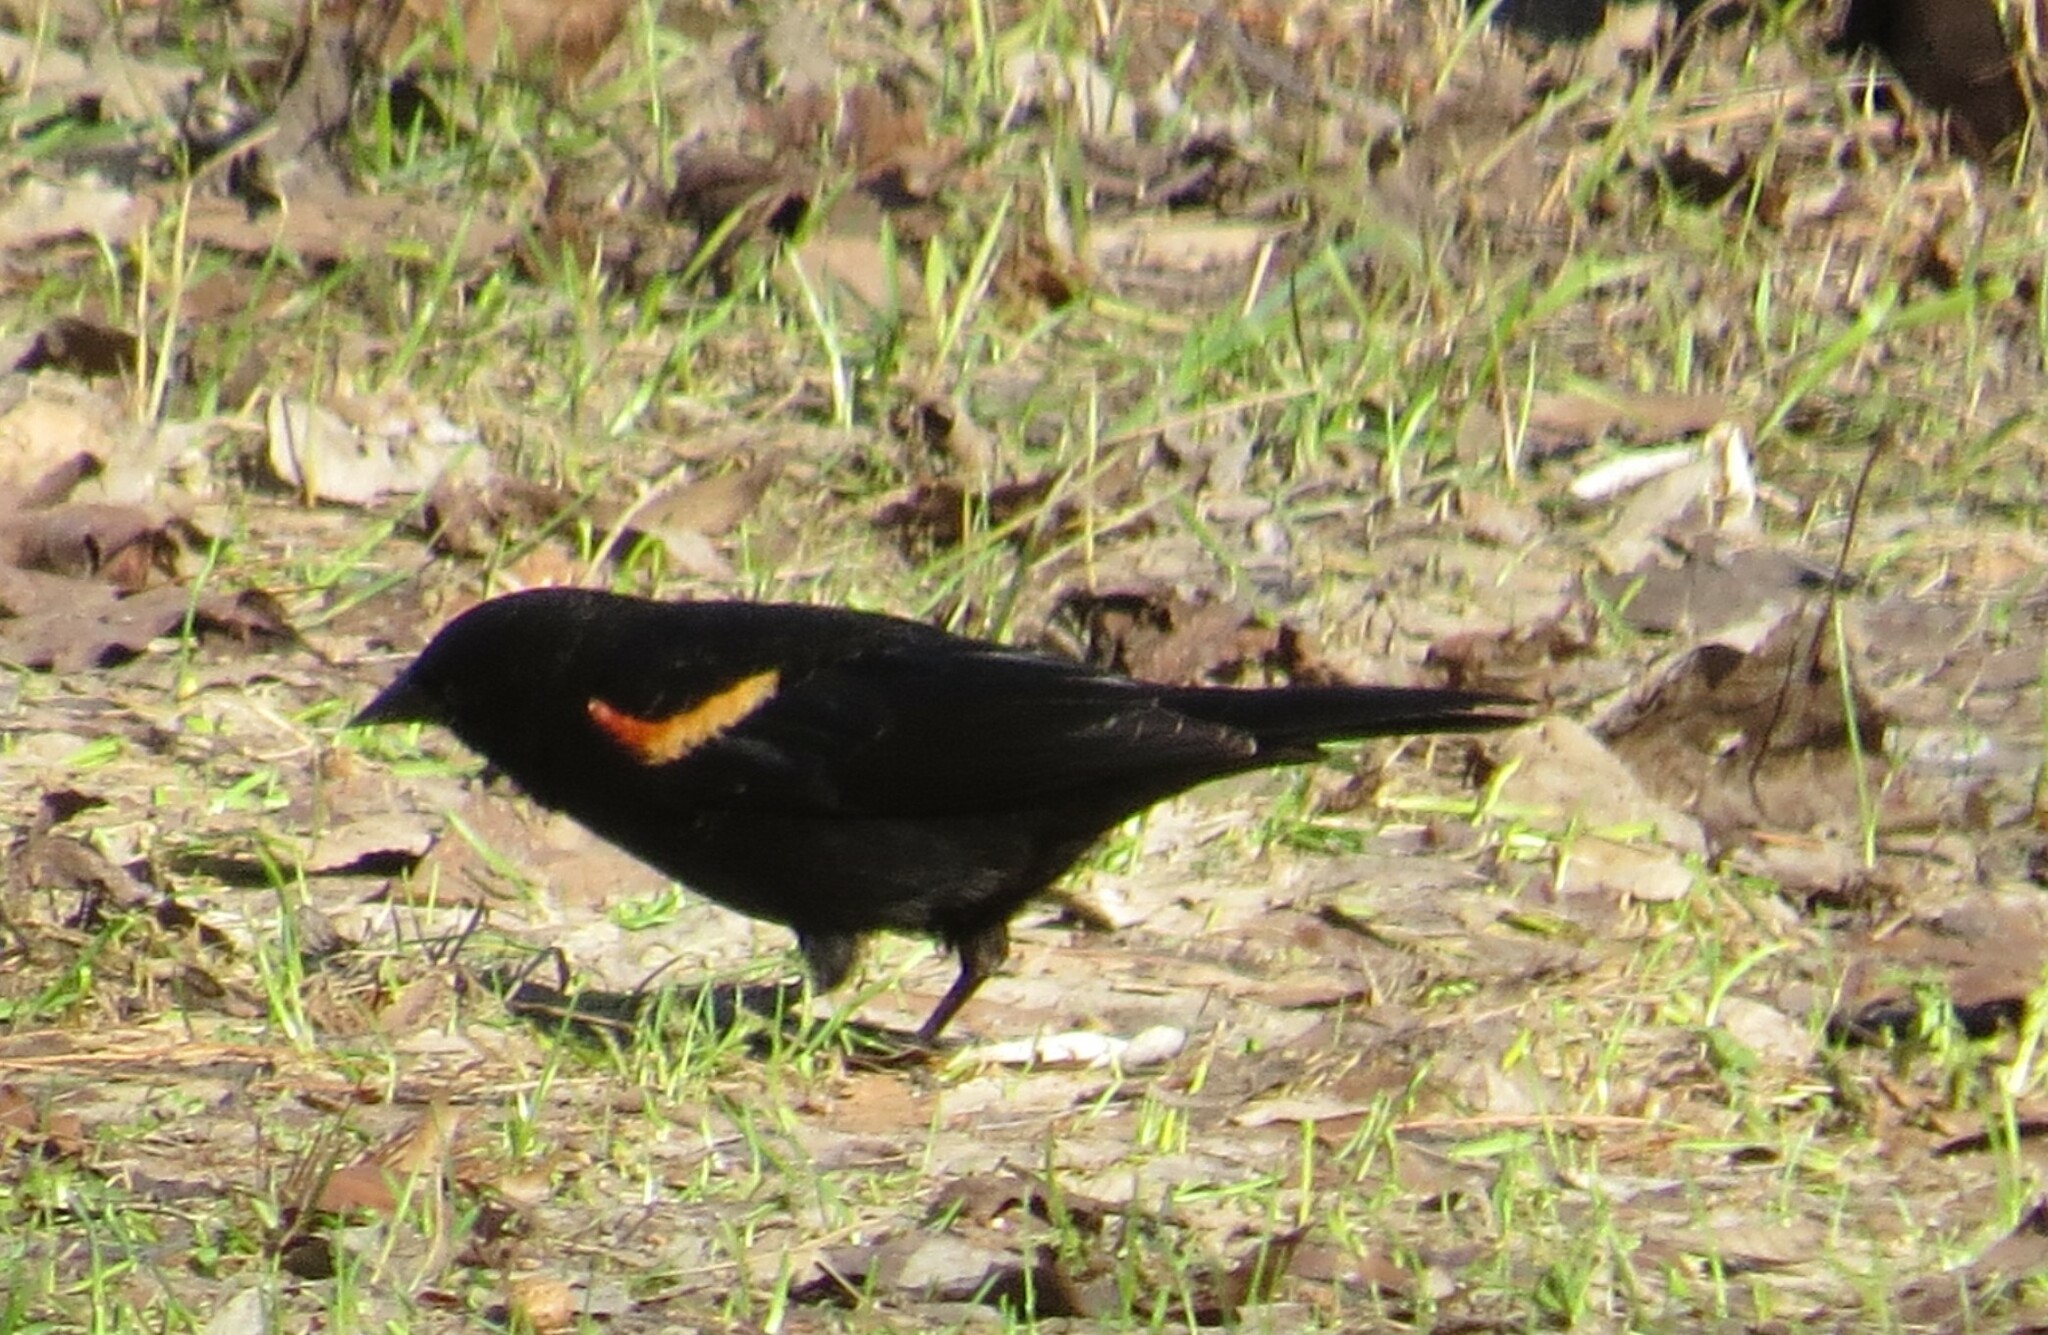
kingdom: Animalia
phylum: Chordata
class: Aves
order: Passeriformes
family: Icteridae
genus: Agelaius
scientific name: Agelaius phoeniceus
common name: Red-winged blackbird
